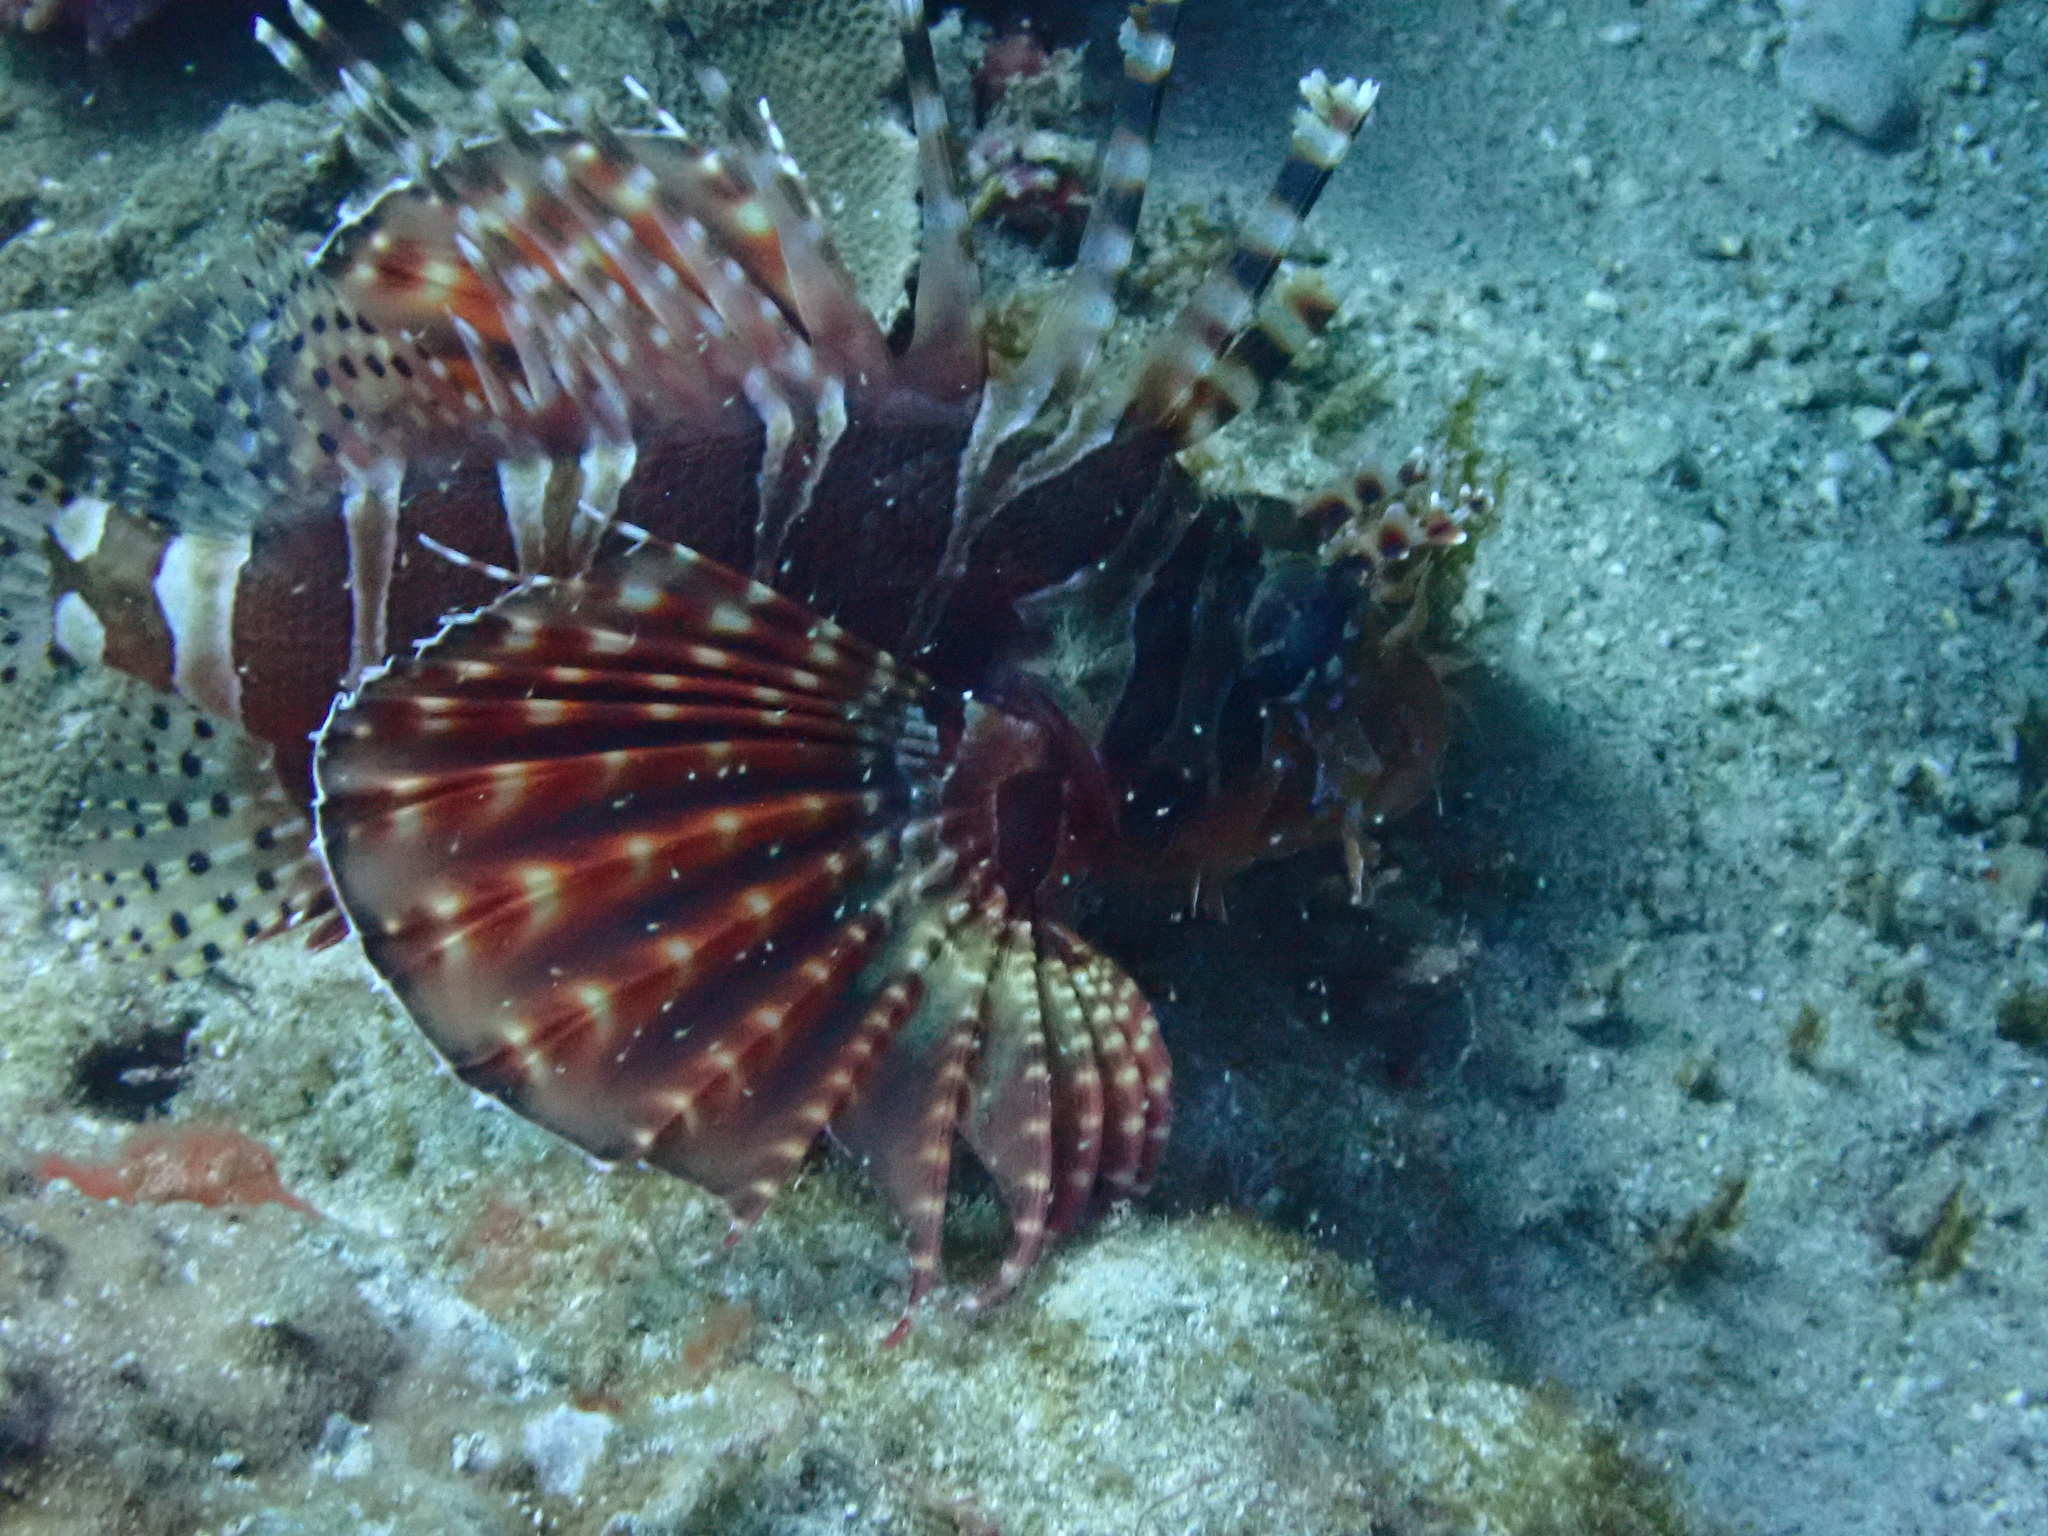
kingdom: Animalia
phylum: Chordata
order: Scorpaeniformes
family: Scorpaenidae
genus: Dendrochirus
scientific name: Dendrochirus zebra
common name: Zebra lionfish
